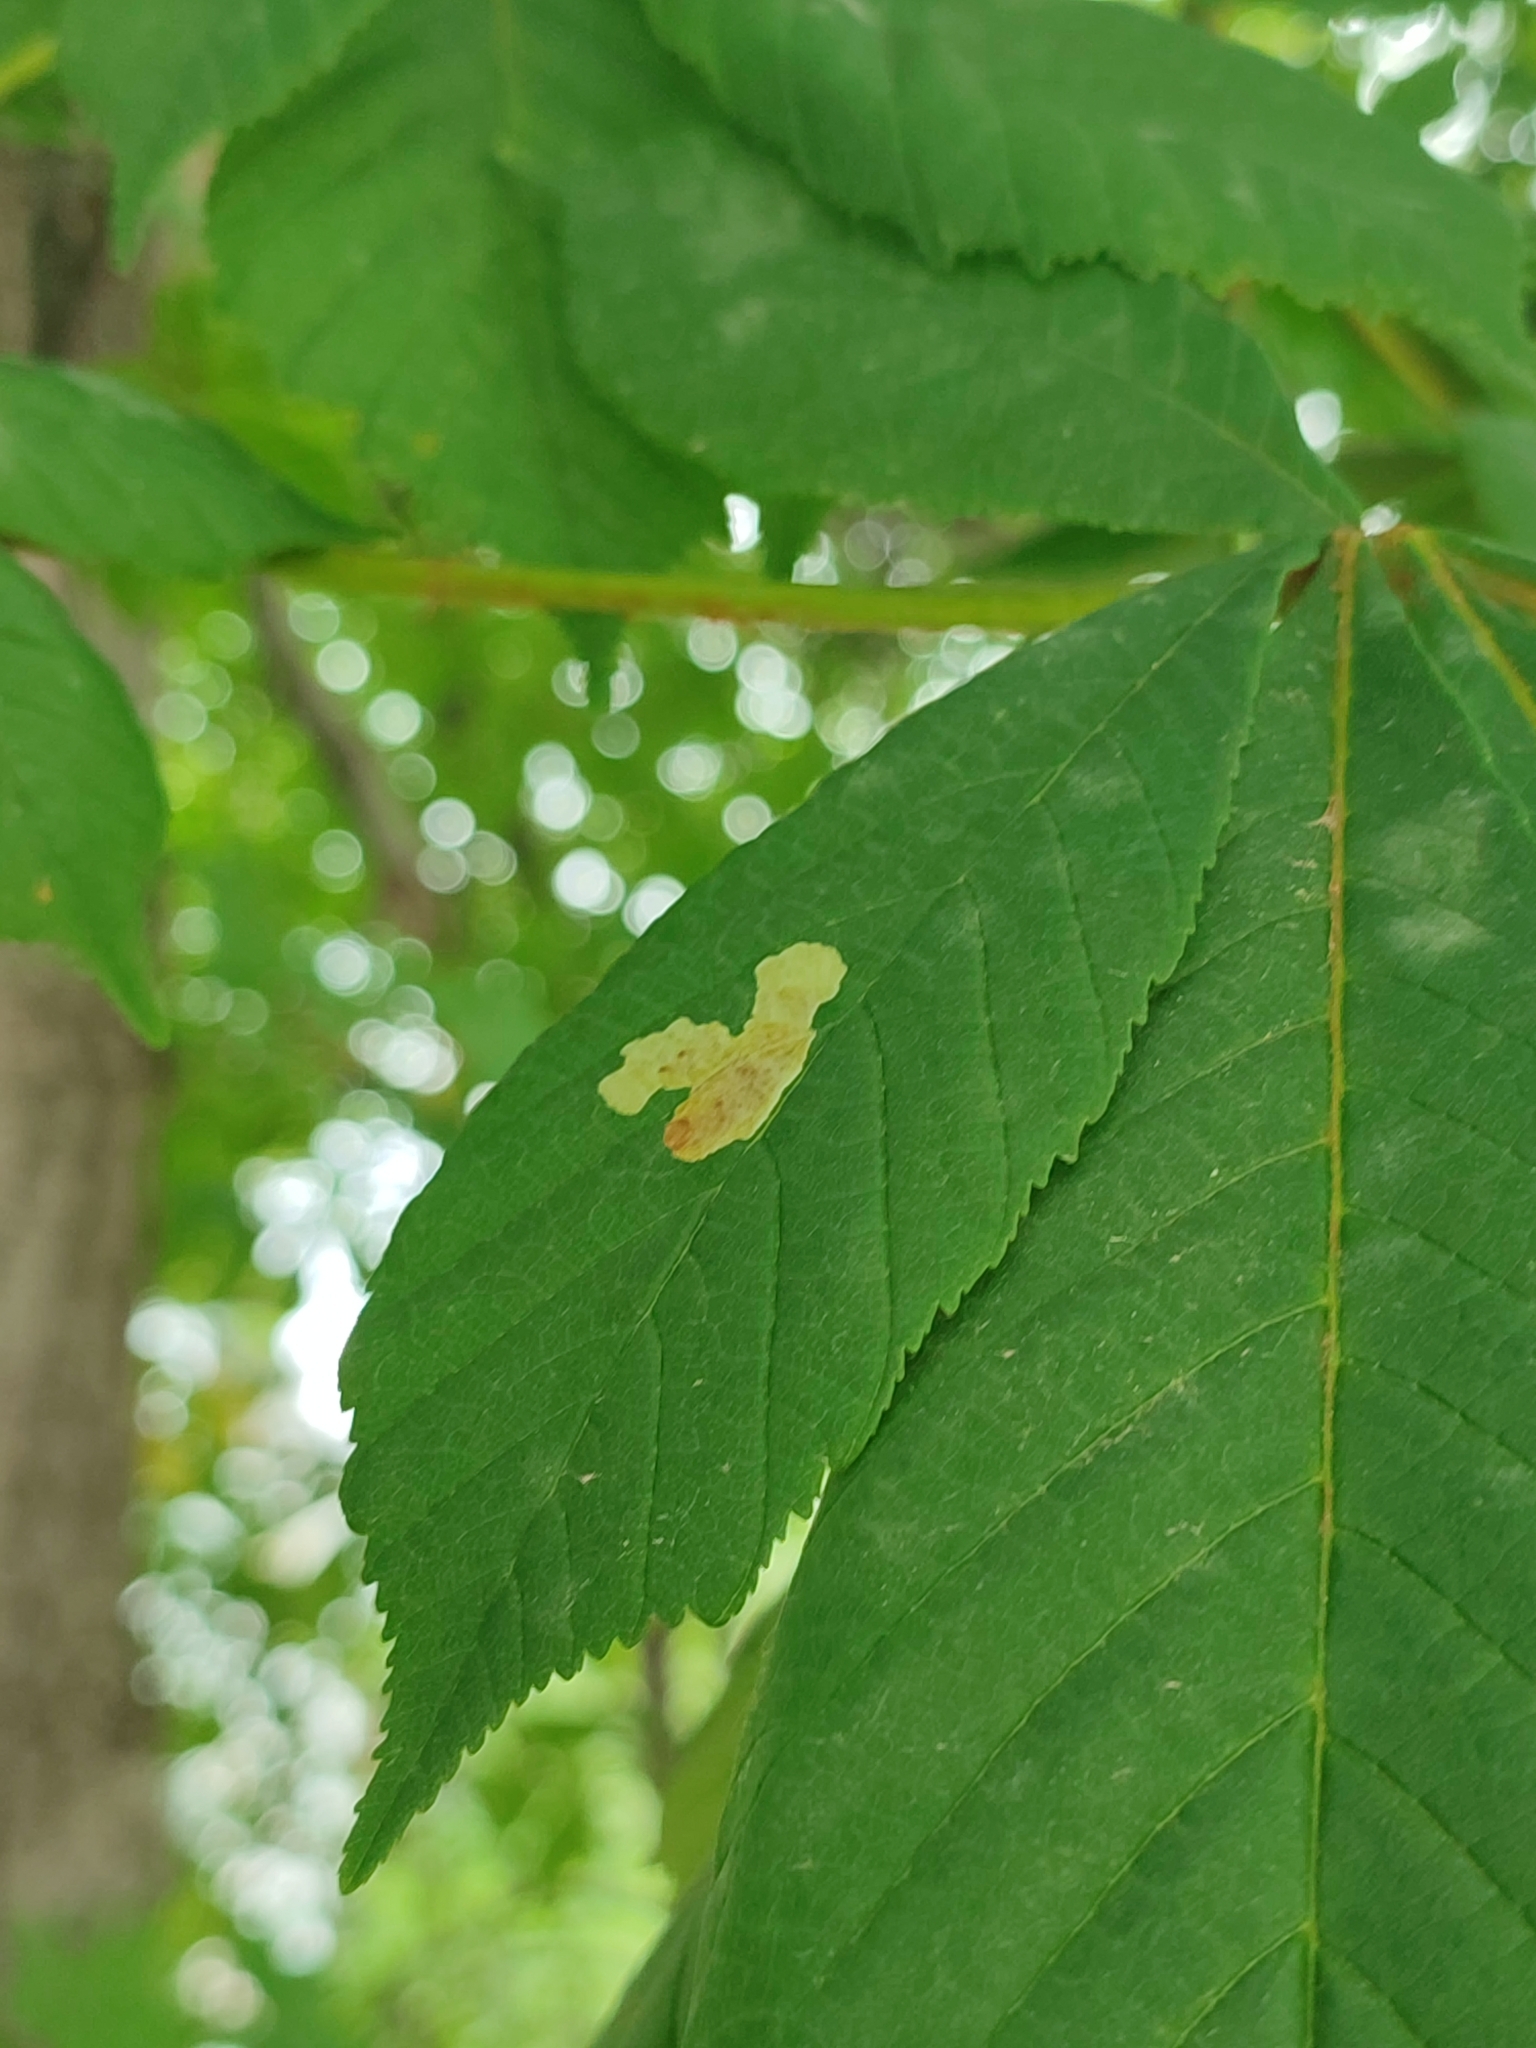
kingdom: Animalia
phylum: Arthropoda
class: Insecta
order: Lepidoptera
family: Gracillariidae
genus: Cameraria
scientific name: Cameraria ohridella
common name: Horse-chestnut leaf-miner
